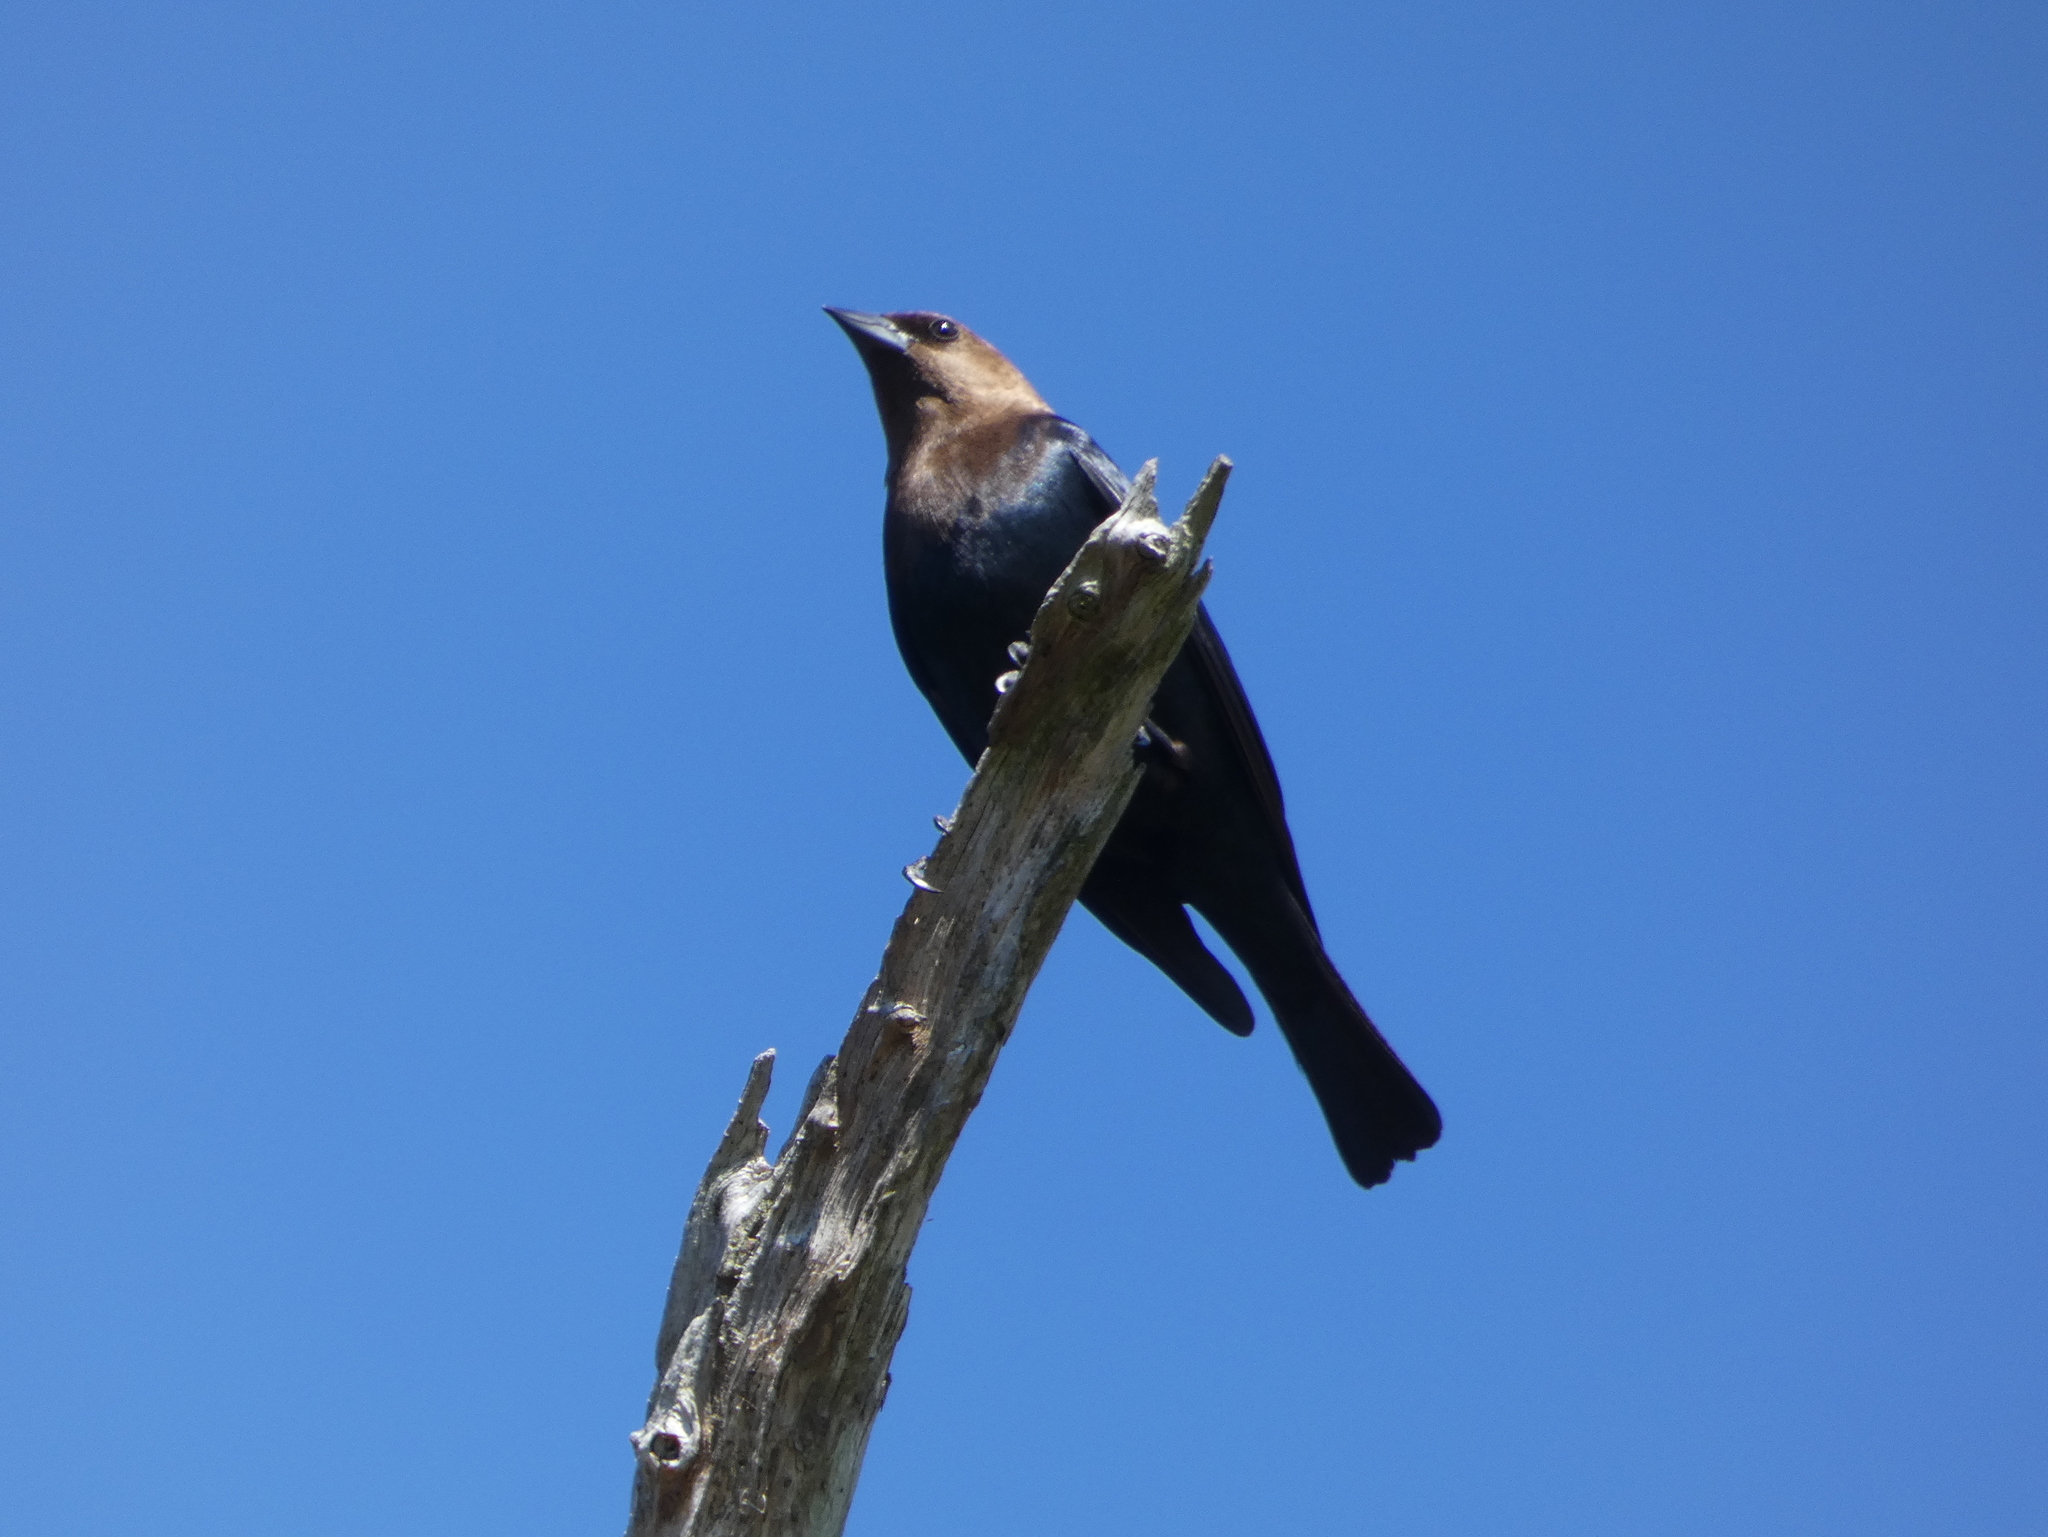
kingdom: Animalia
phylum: Chordata
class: Aves
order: Passeriformes
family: Icteridae
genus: Molothrus
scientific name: Molothrus ater
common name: Brown-headed cowbird
